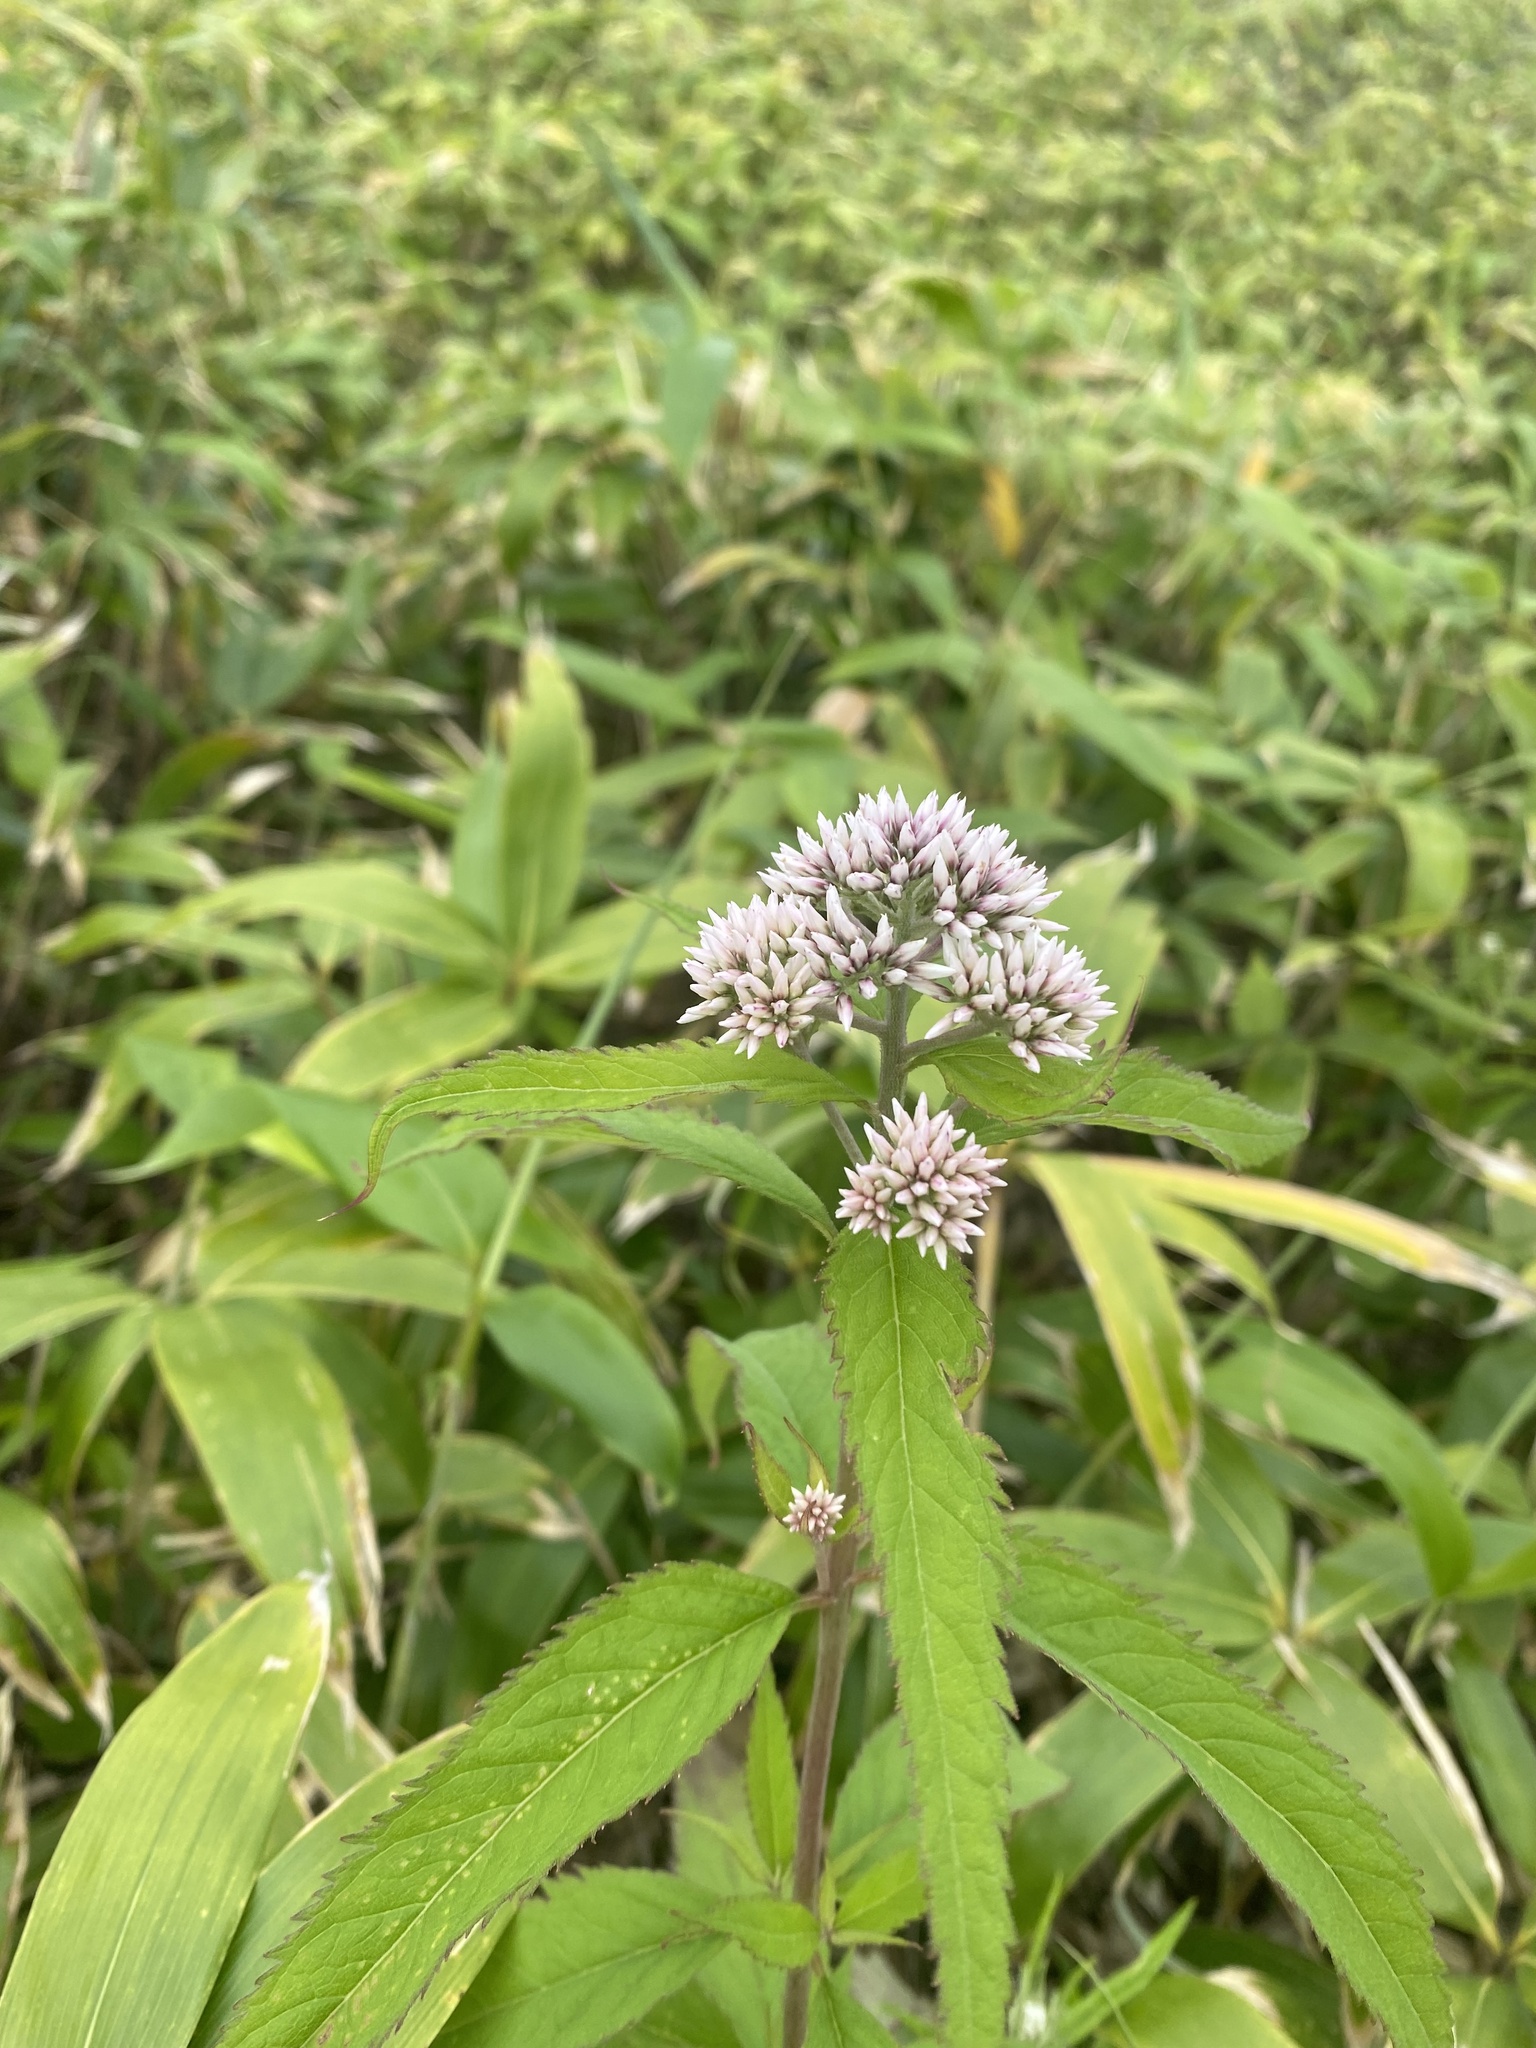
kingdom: Plantae
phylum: Tracheophyta
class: Magnoliopsida
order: Asterales
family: Asteraceae
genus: Eupatorium
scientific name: Eupatorium glehnii
